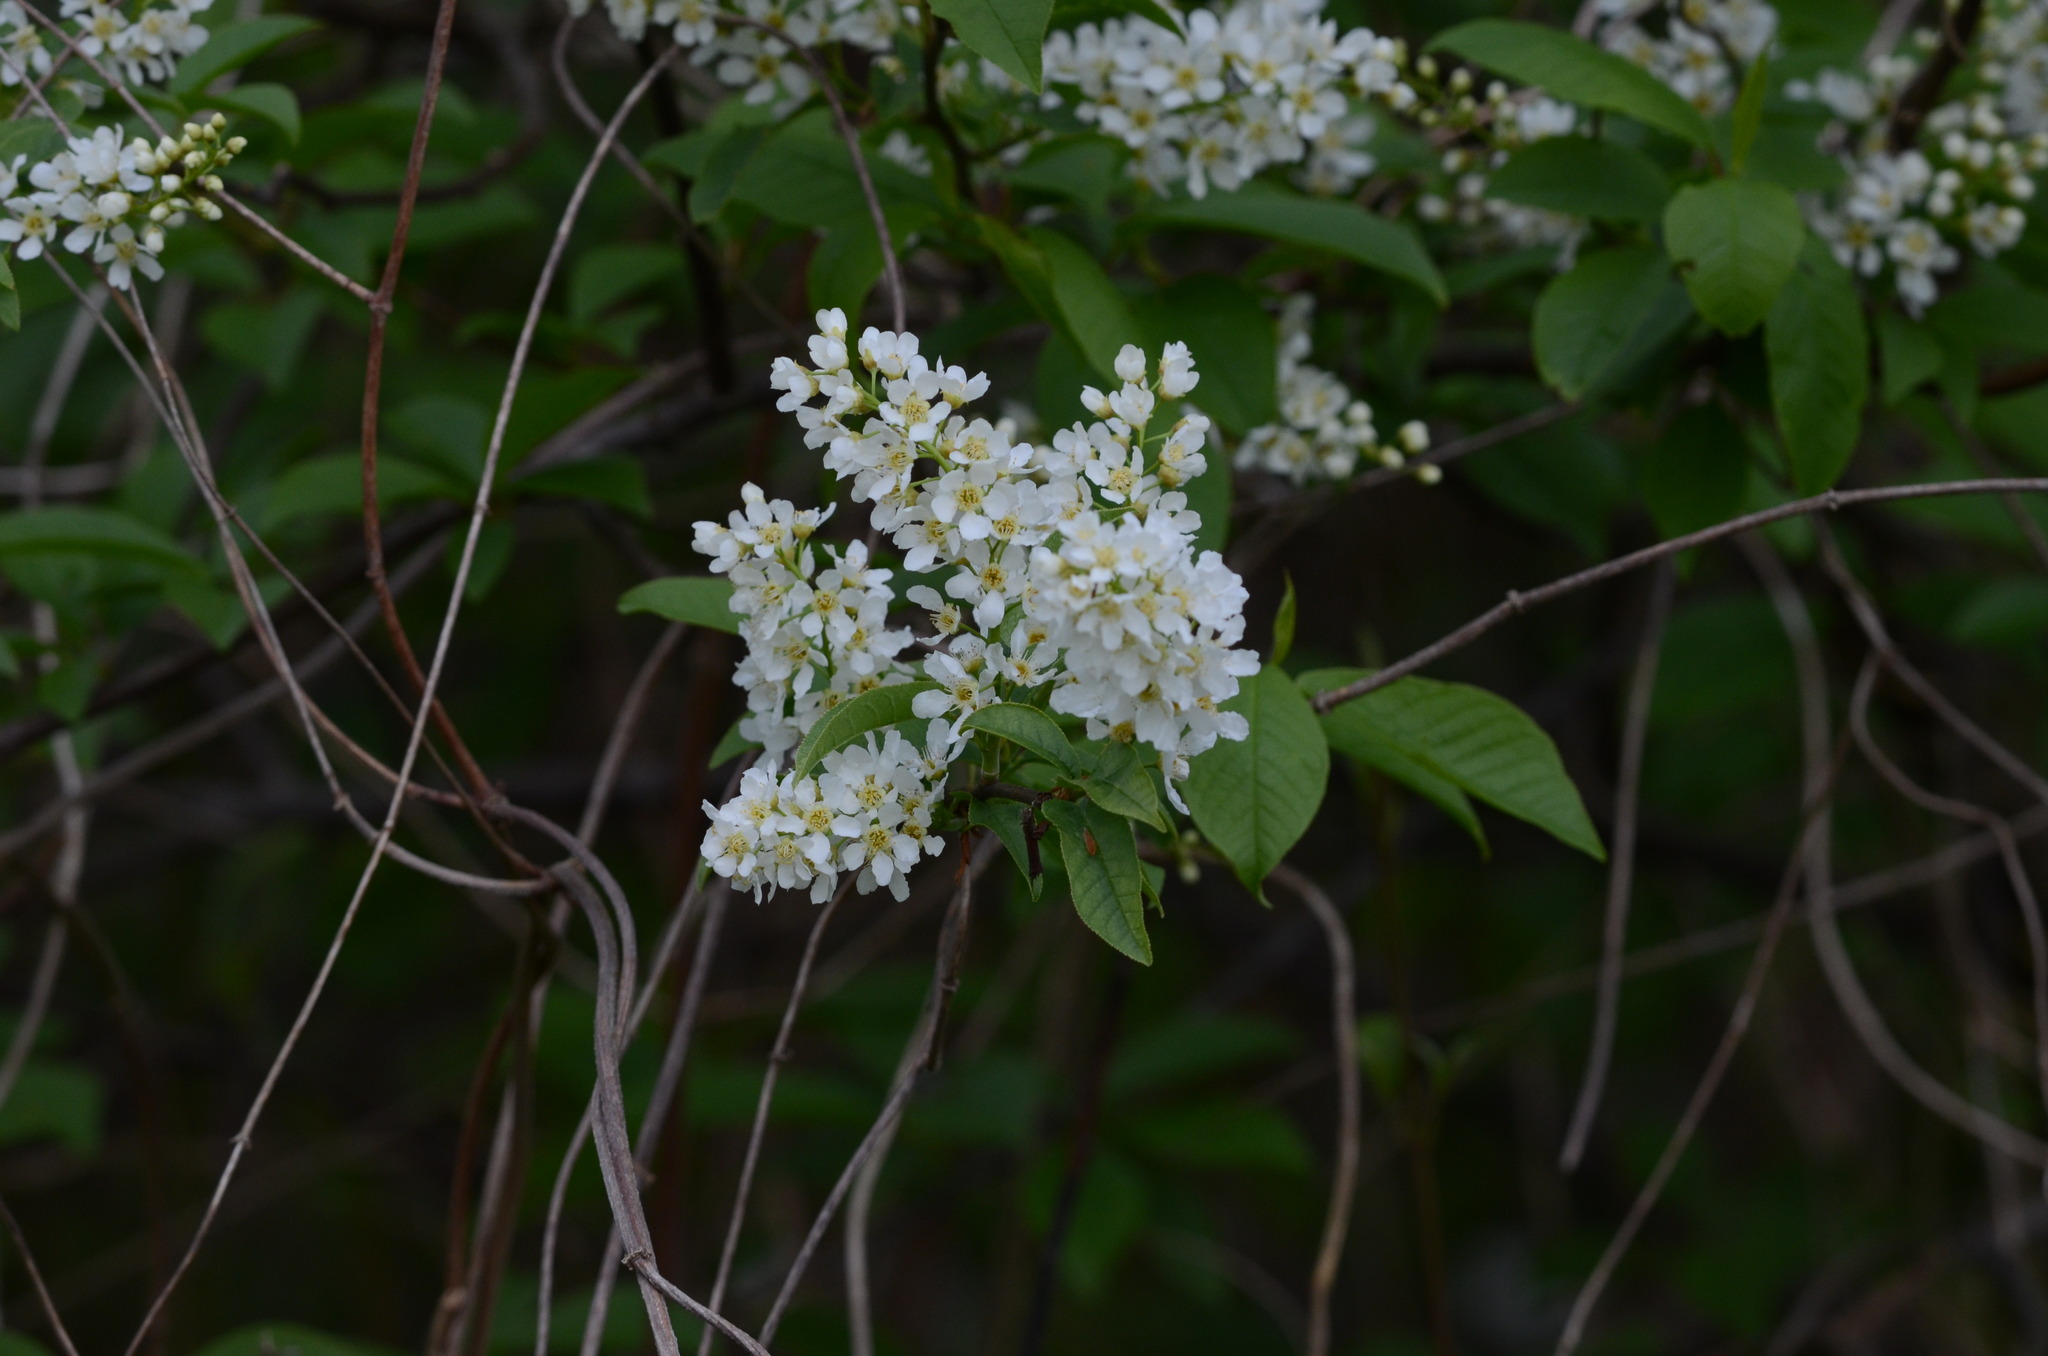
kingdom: Plantae
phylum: Tracheophyta
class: Magnoliopsida
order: Rosales
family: Rosaceae
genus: Prunus
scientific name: Prunus padus
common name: Bird cherry
